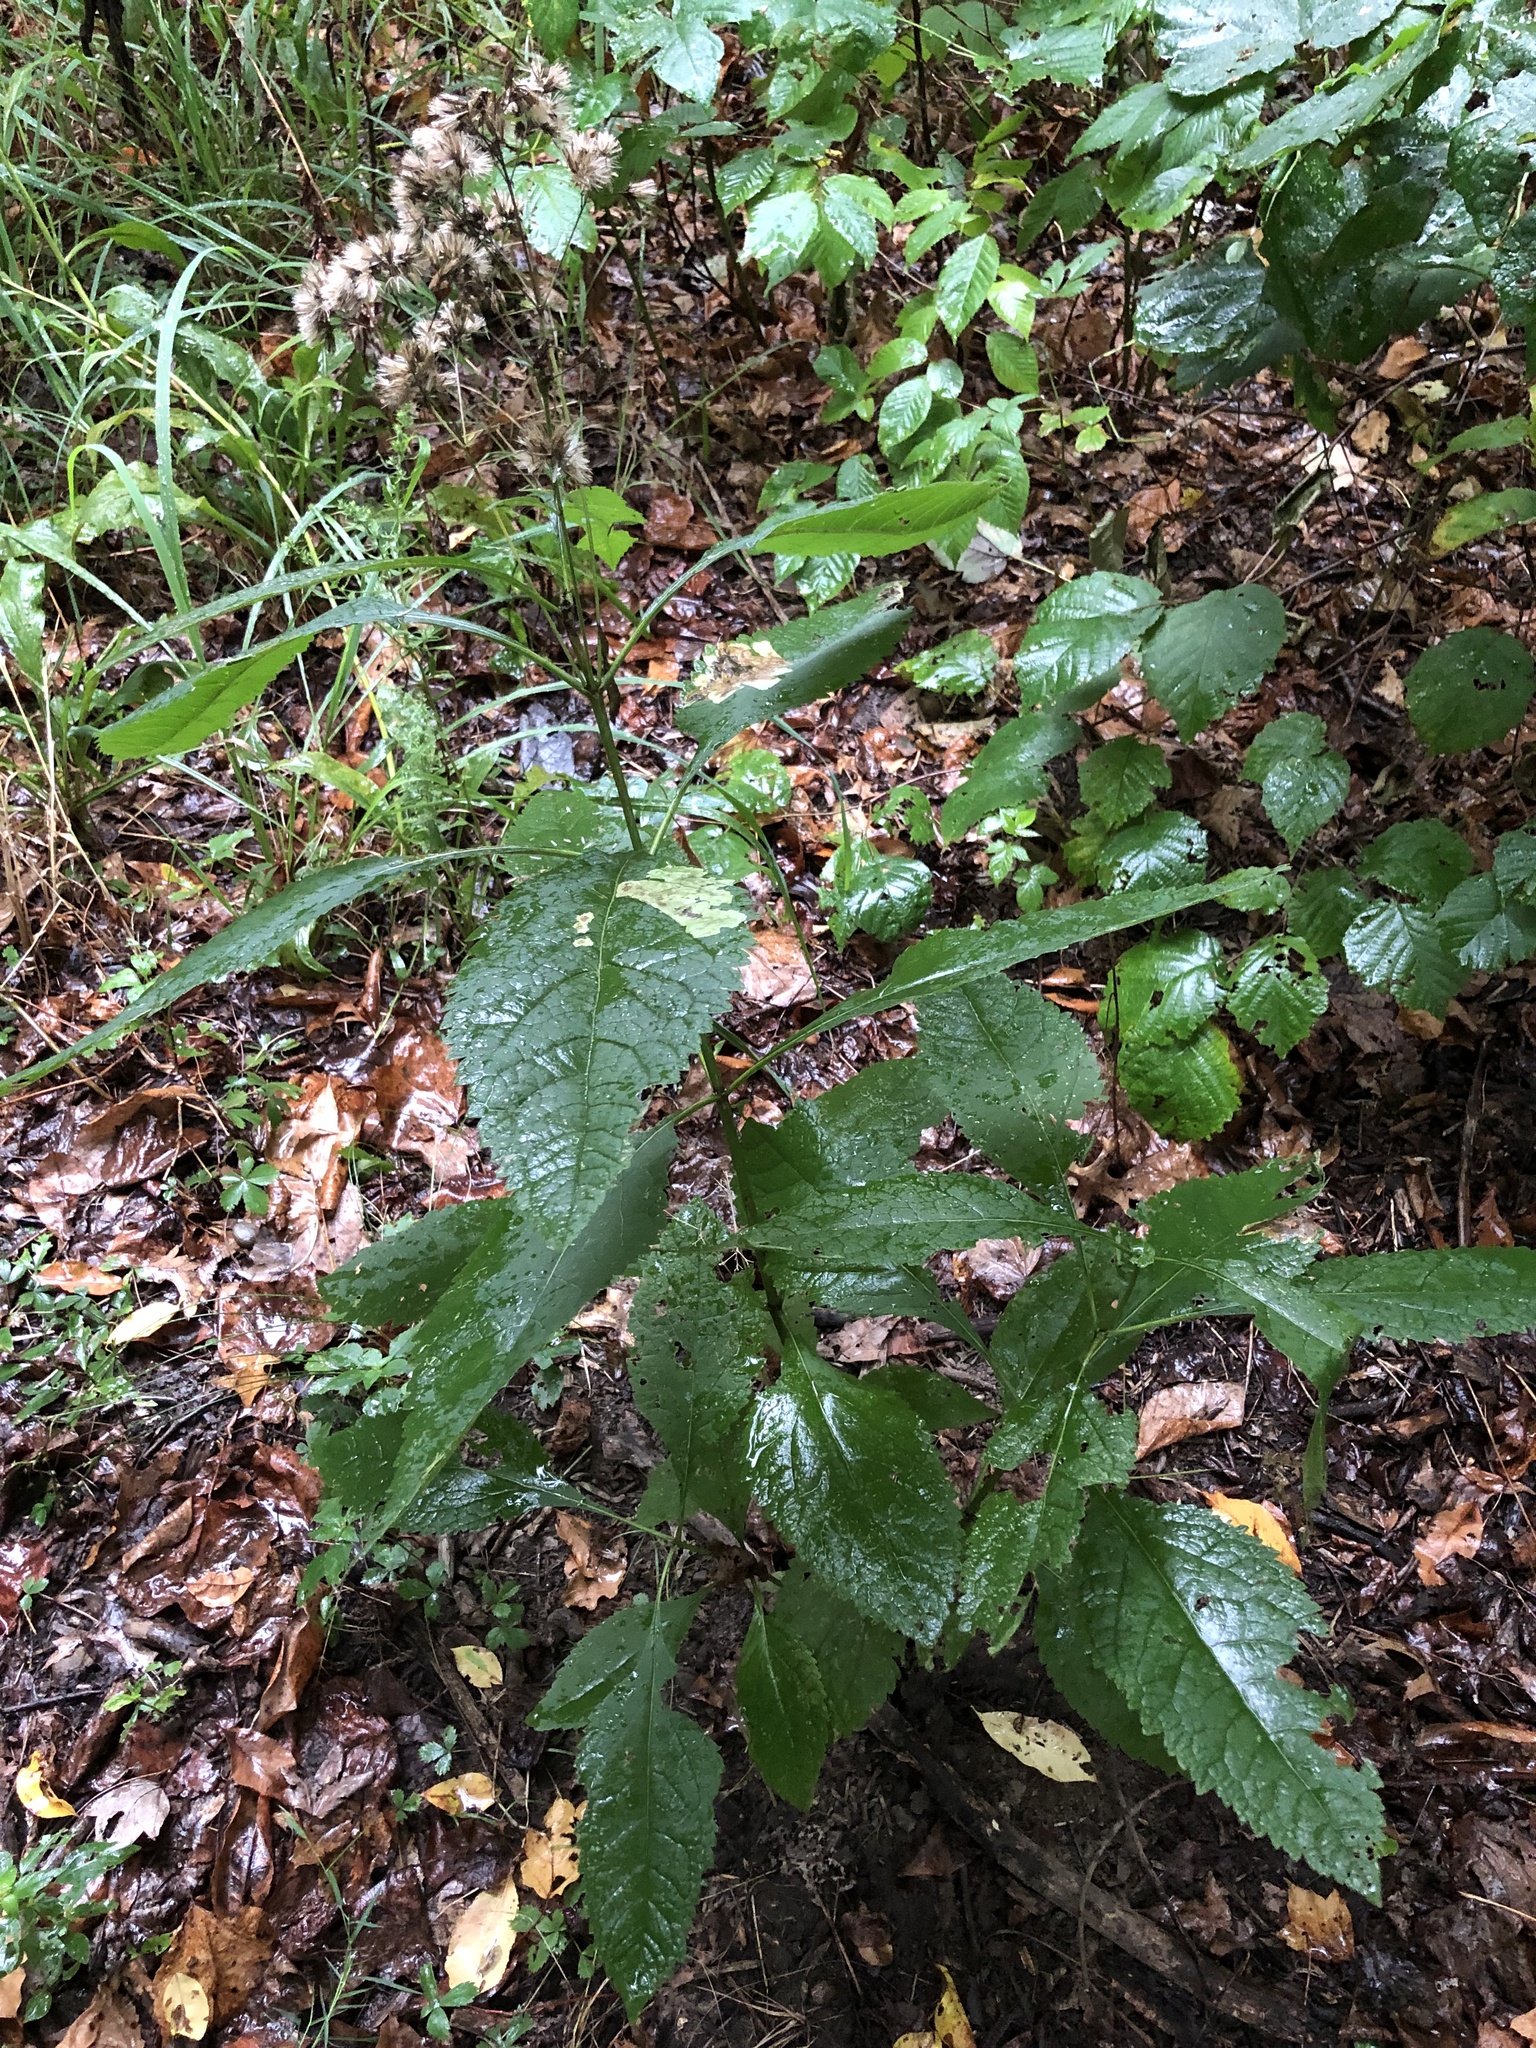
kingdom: Plantae
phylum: Tracheophyta
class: Magnoliopsida
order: Asterales
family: Asteraceae
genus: Eutrochium
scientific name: Eutrochium purpureum
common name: Gravelroot
